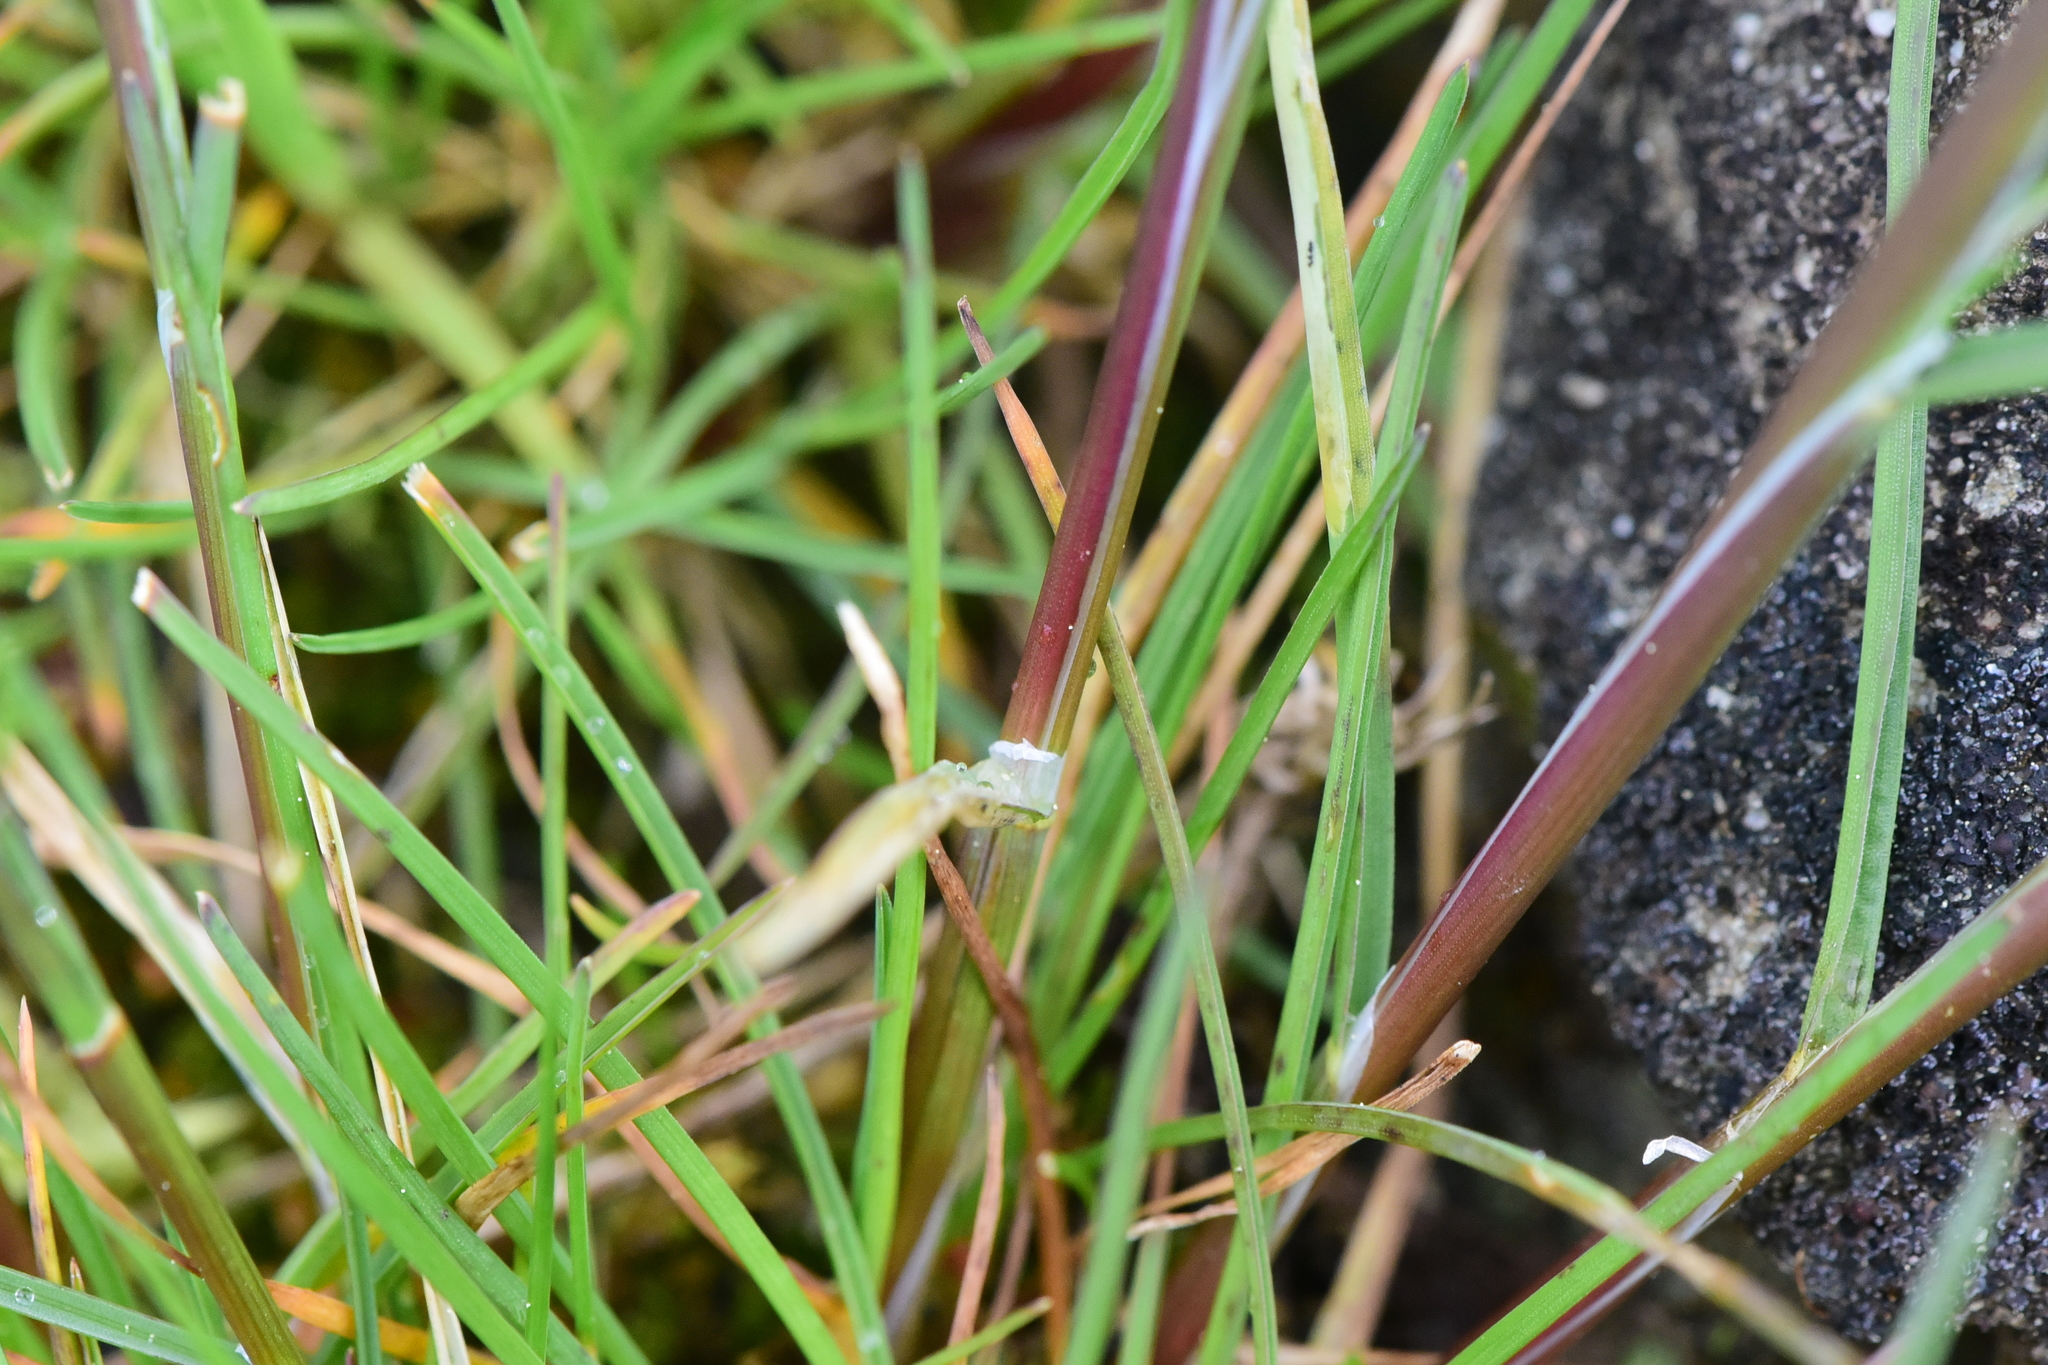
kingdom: Plantae
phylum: Tracheophyta
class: Liliopsida
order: Poales
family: Poaceae
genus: Poa
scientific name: Poa bulbosa
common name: Bulbous bluegrass
